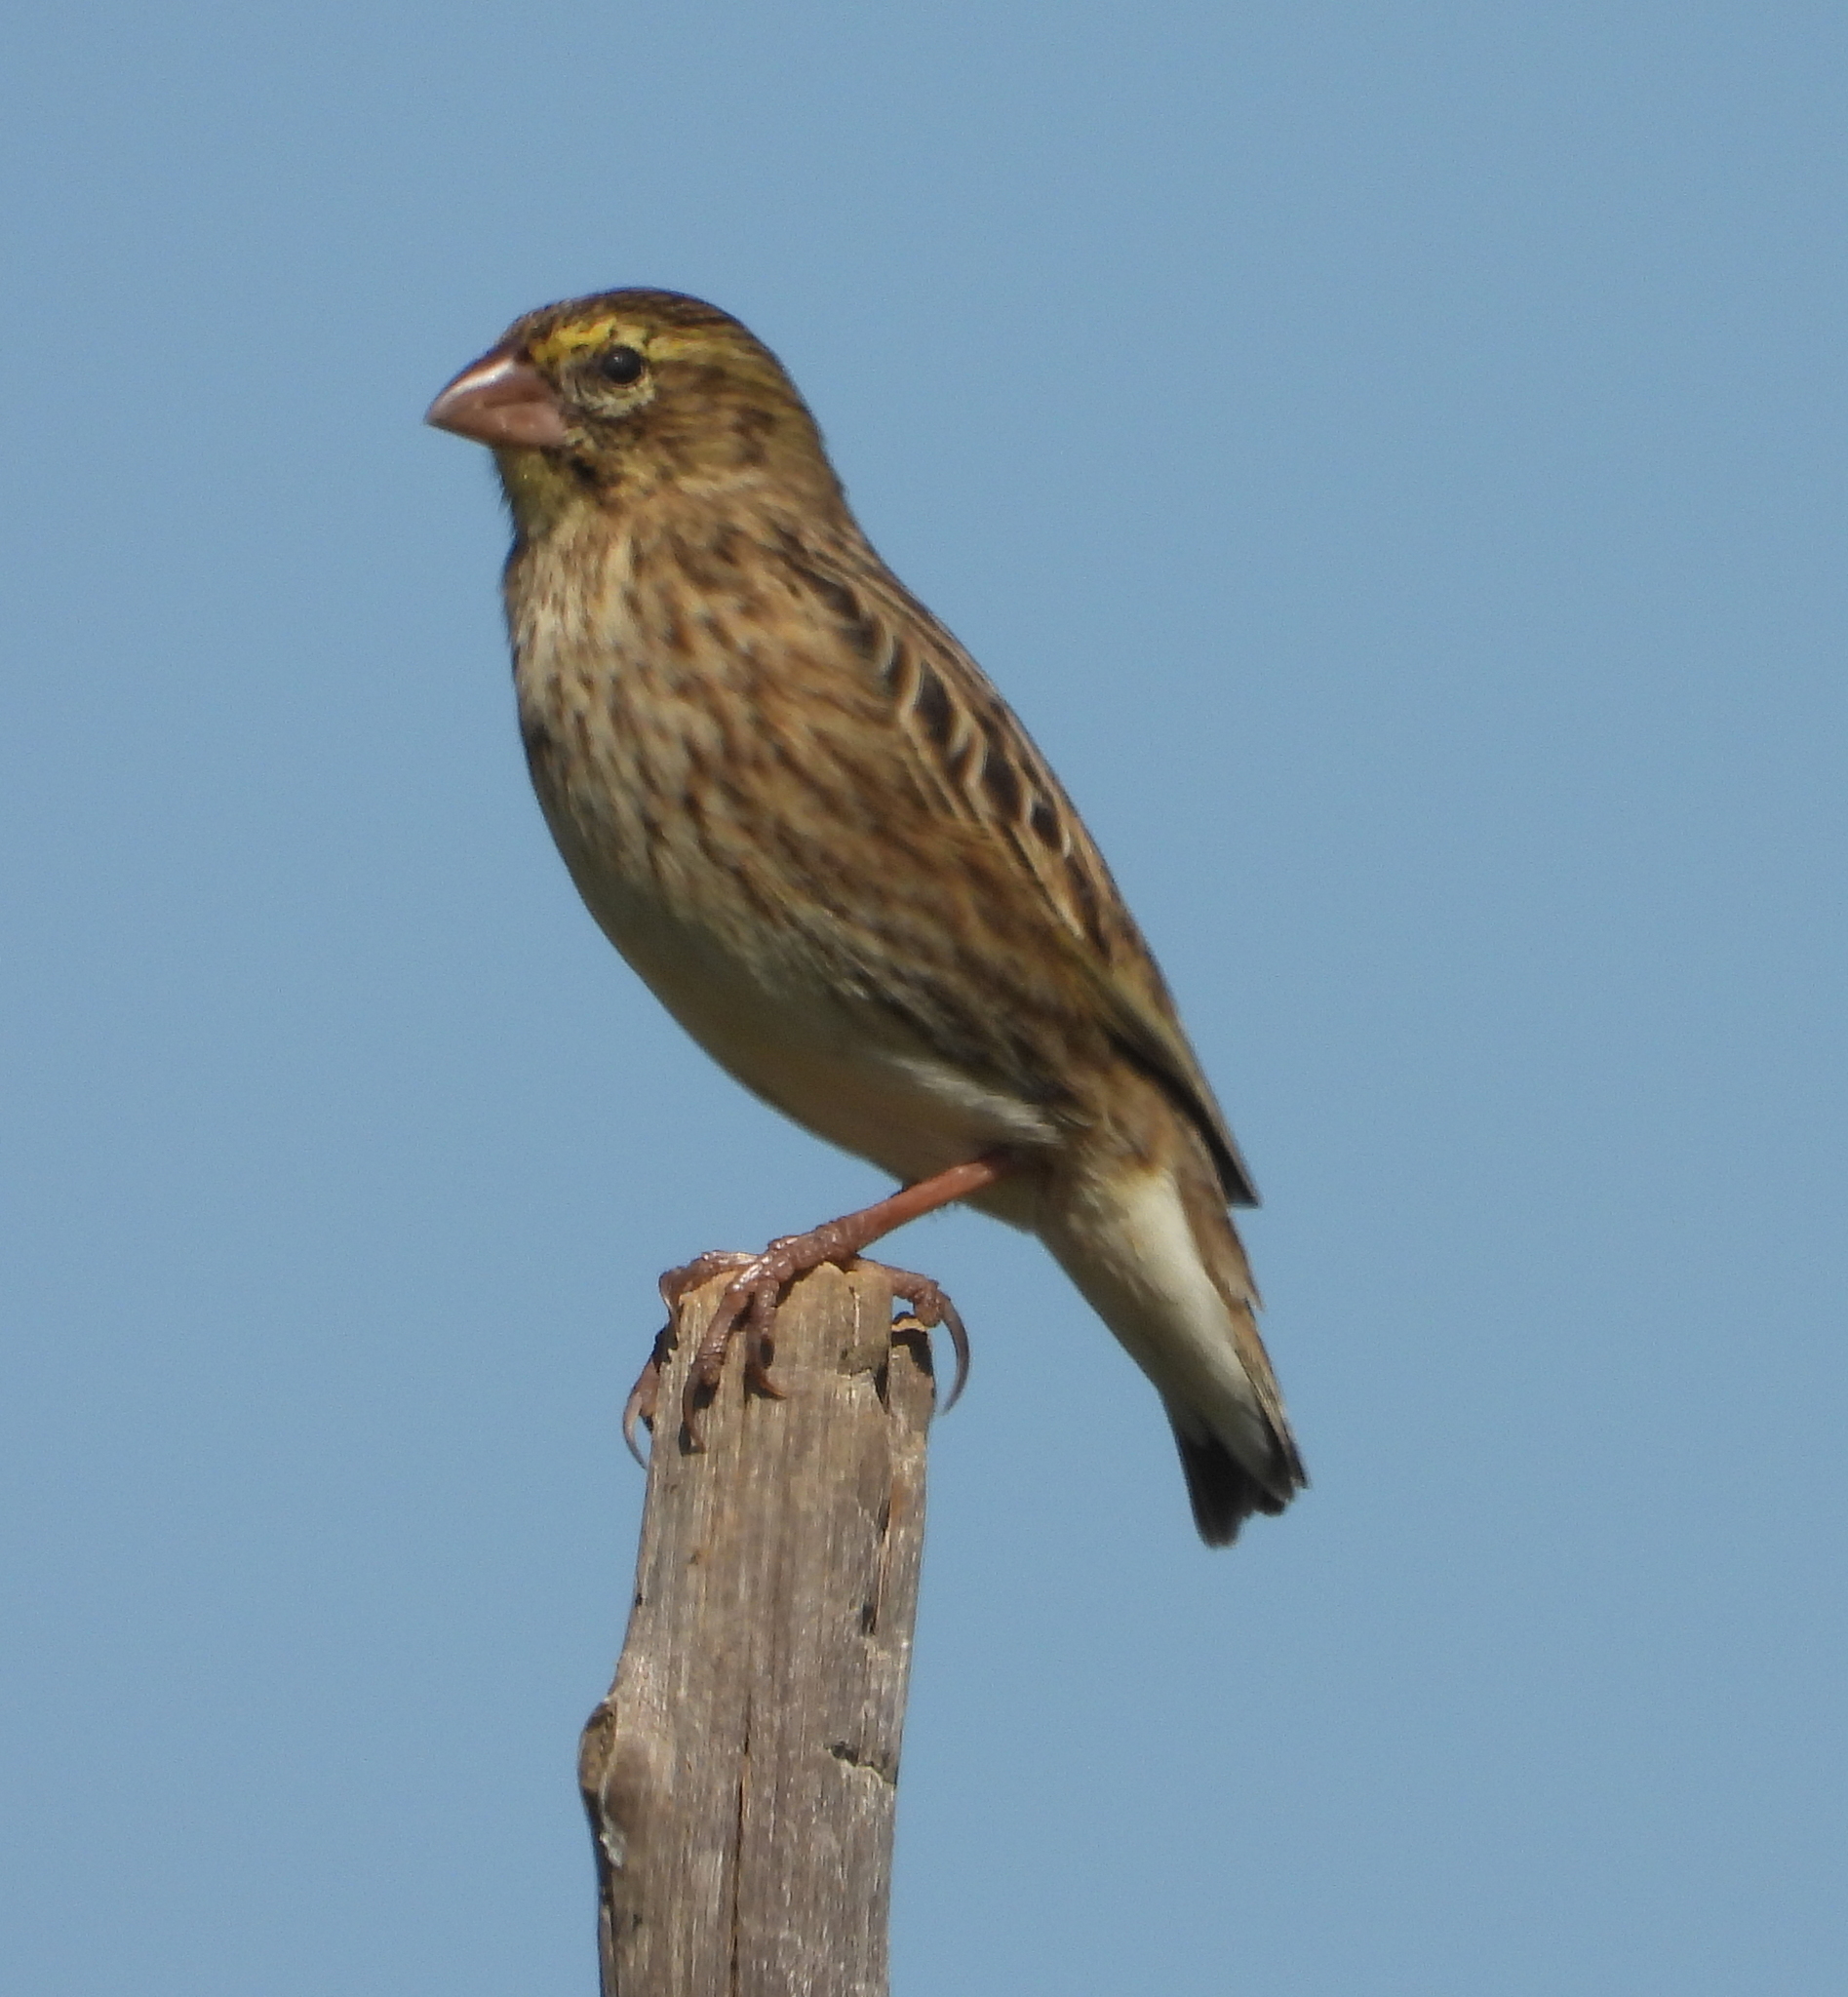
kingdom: Animalia
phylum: Chordata
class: Aves
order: Passeriformes
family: Ploceidae
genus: Euplectes
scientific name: Euplectes orix
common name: Southern red bishop
